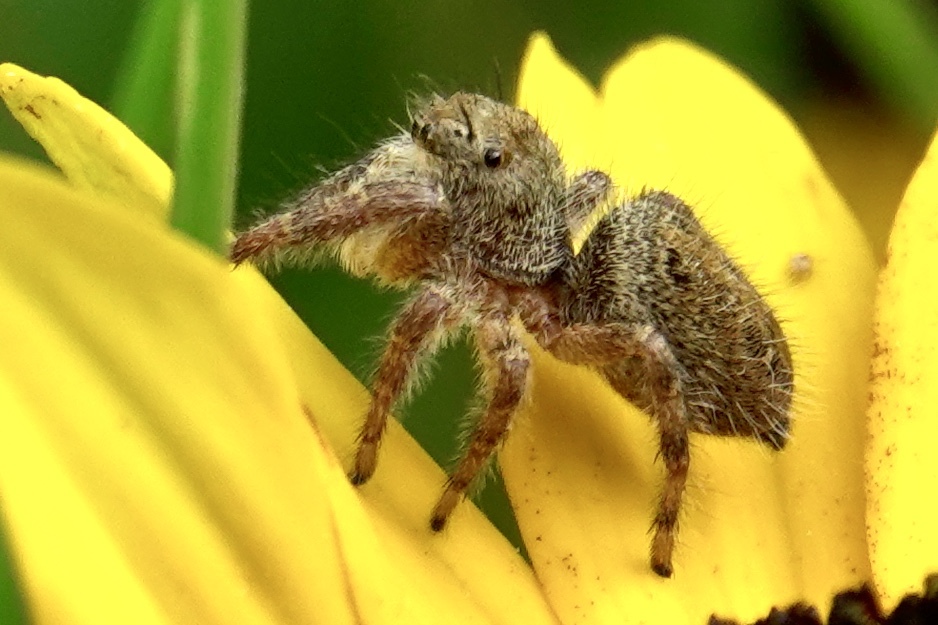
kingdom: Animalia
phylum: Arthropoda
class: Arachnida
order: Araneae
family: Salticidae
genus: Phidippus
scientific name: Phidippus princeps
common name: Grayish jumping spider
